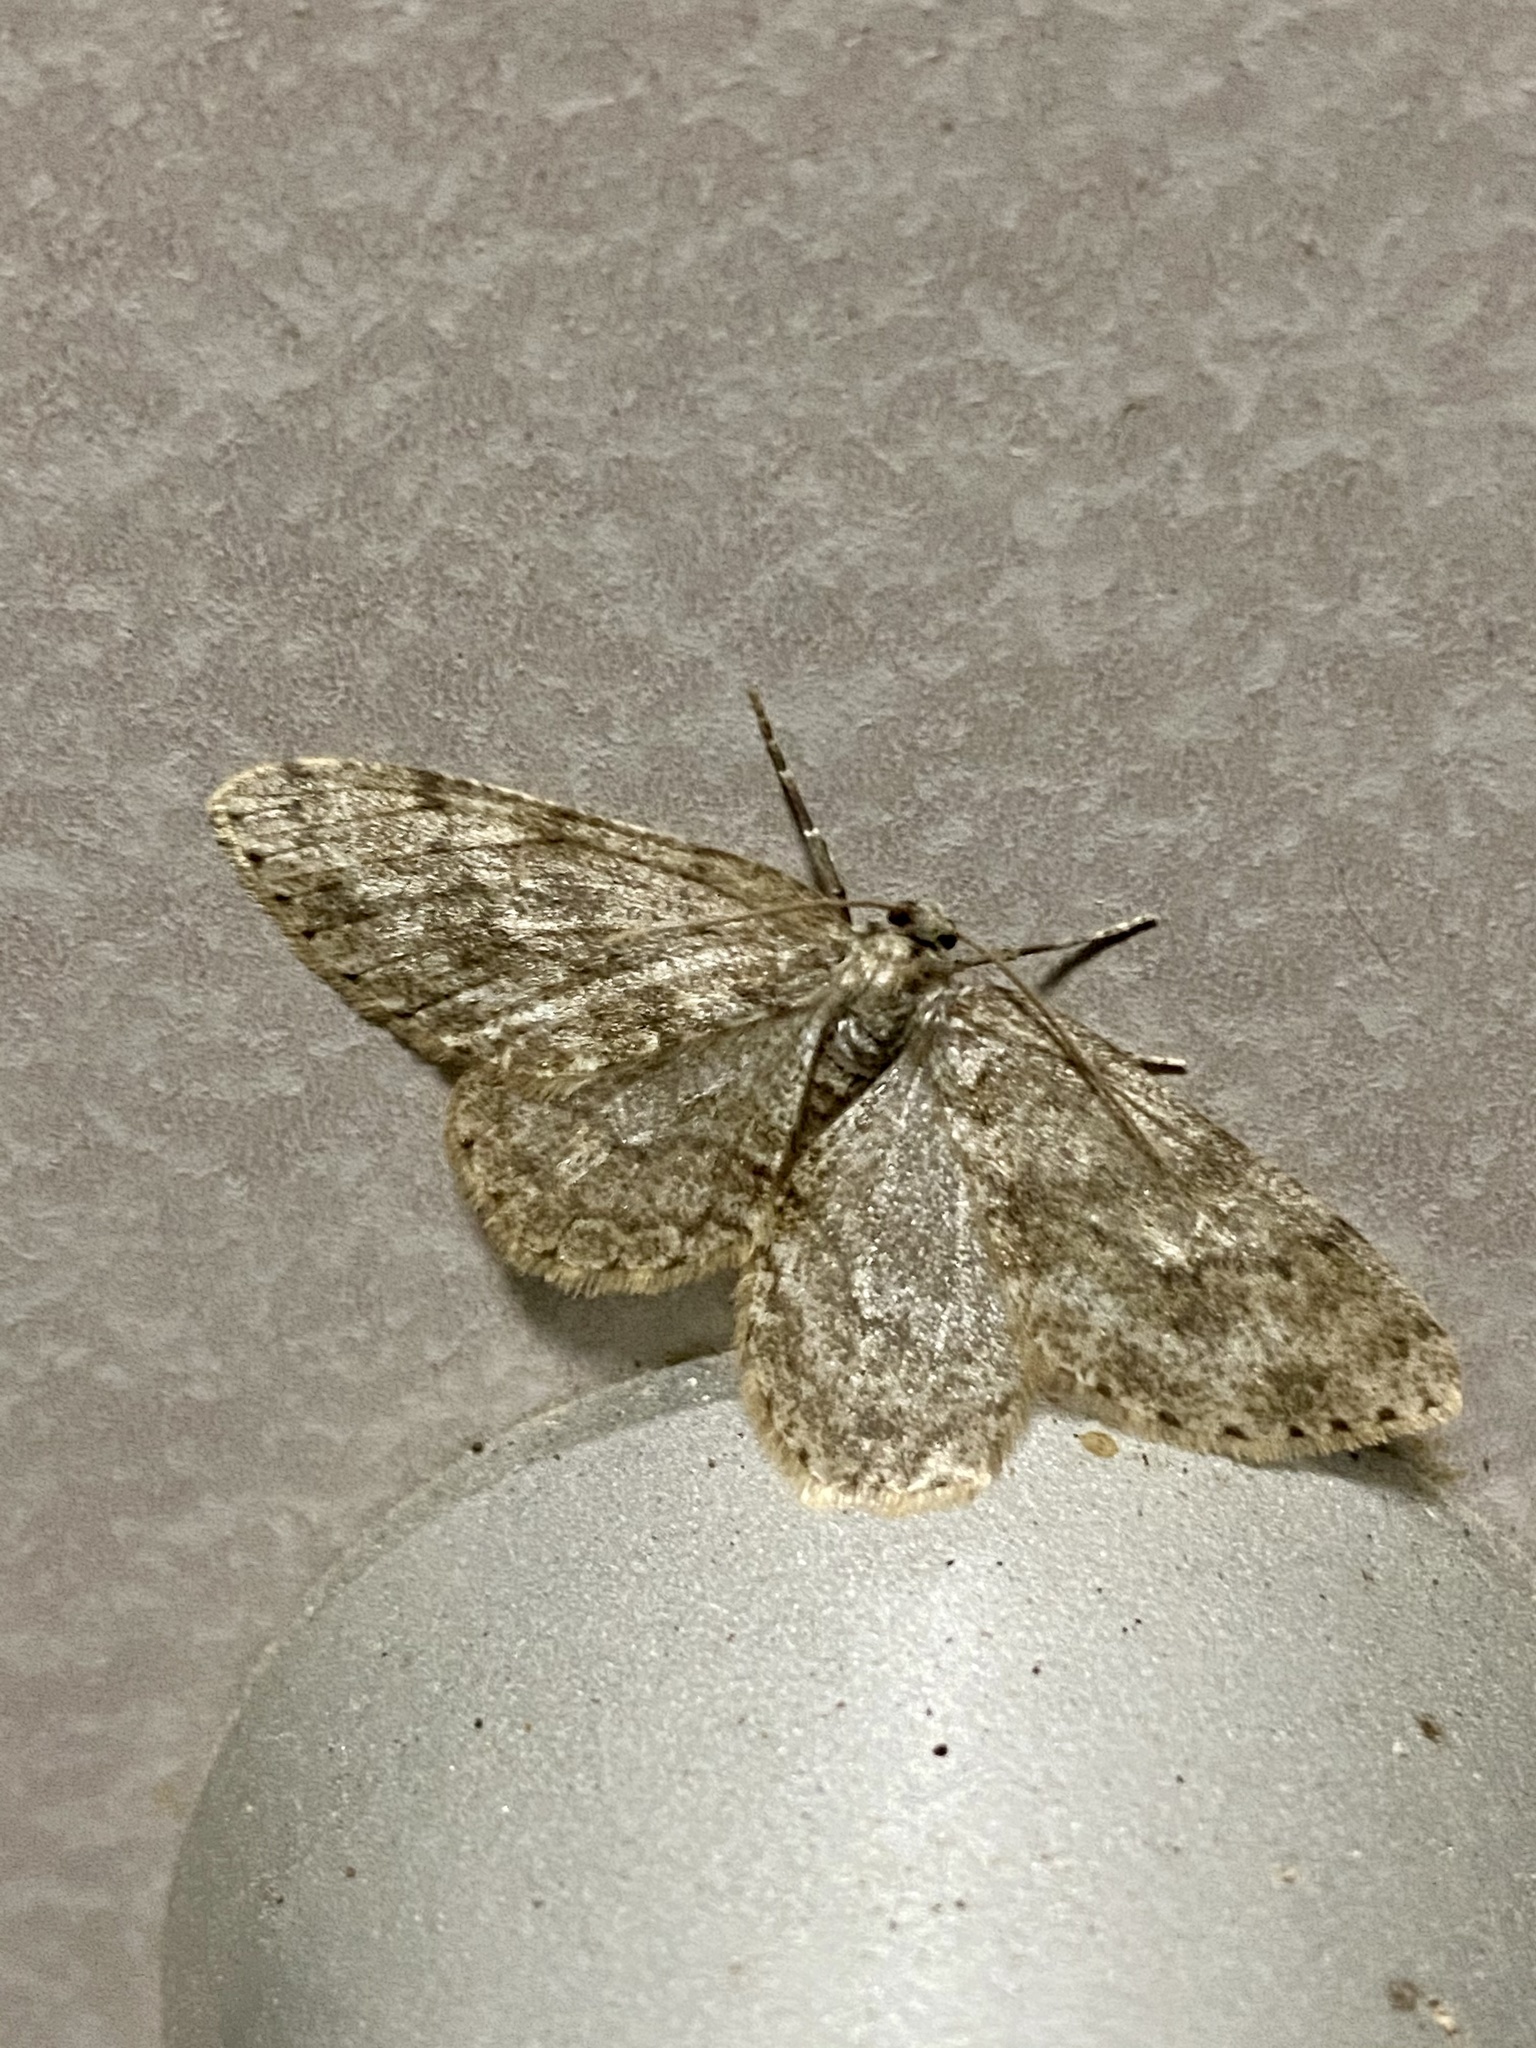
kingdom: Animalia
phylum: Arthropoda
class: Insecta
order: Lepidoptera
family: Geometridae
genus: Ectropis
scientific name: Ectropis aigneri
